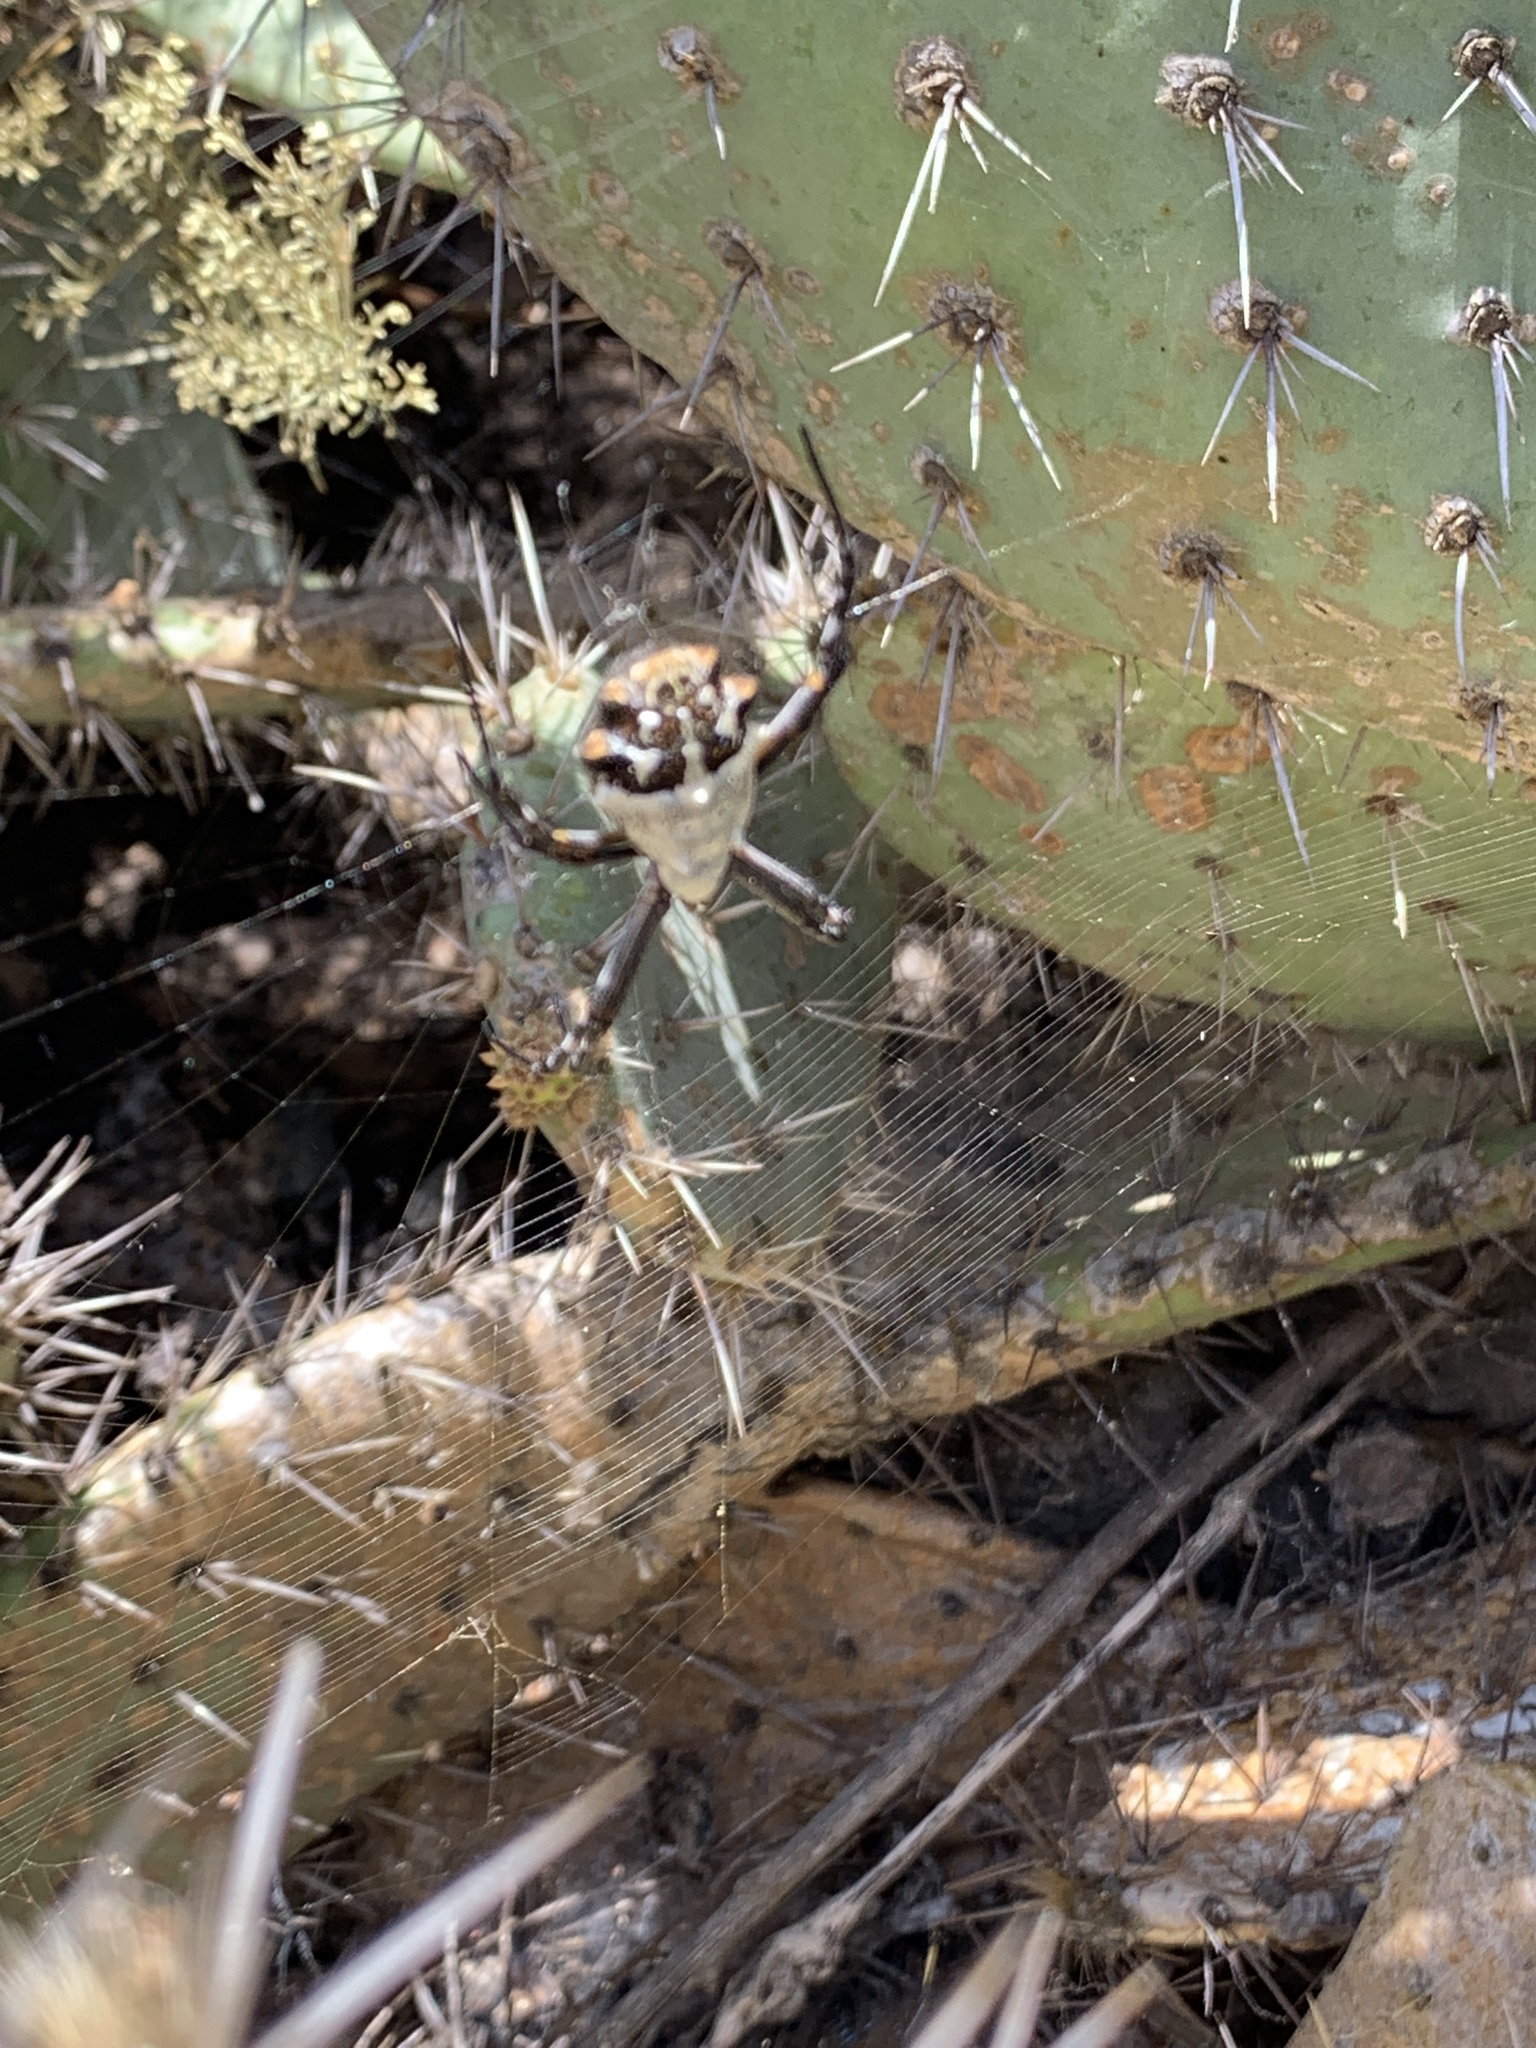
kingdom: Animalia
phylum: Arthropoda
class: Arachnida
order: Araneae
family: Araneidae
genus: Argiope
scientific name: Argiope argentata
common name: Orb weavers
